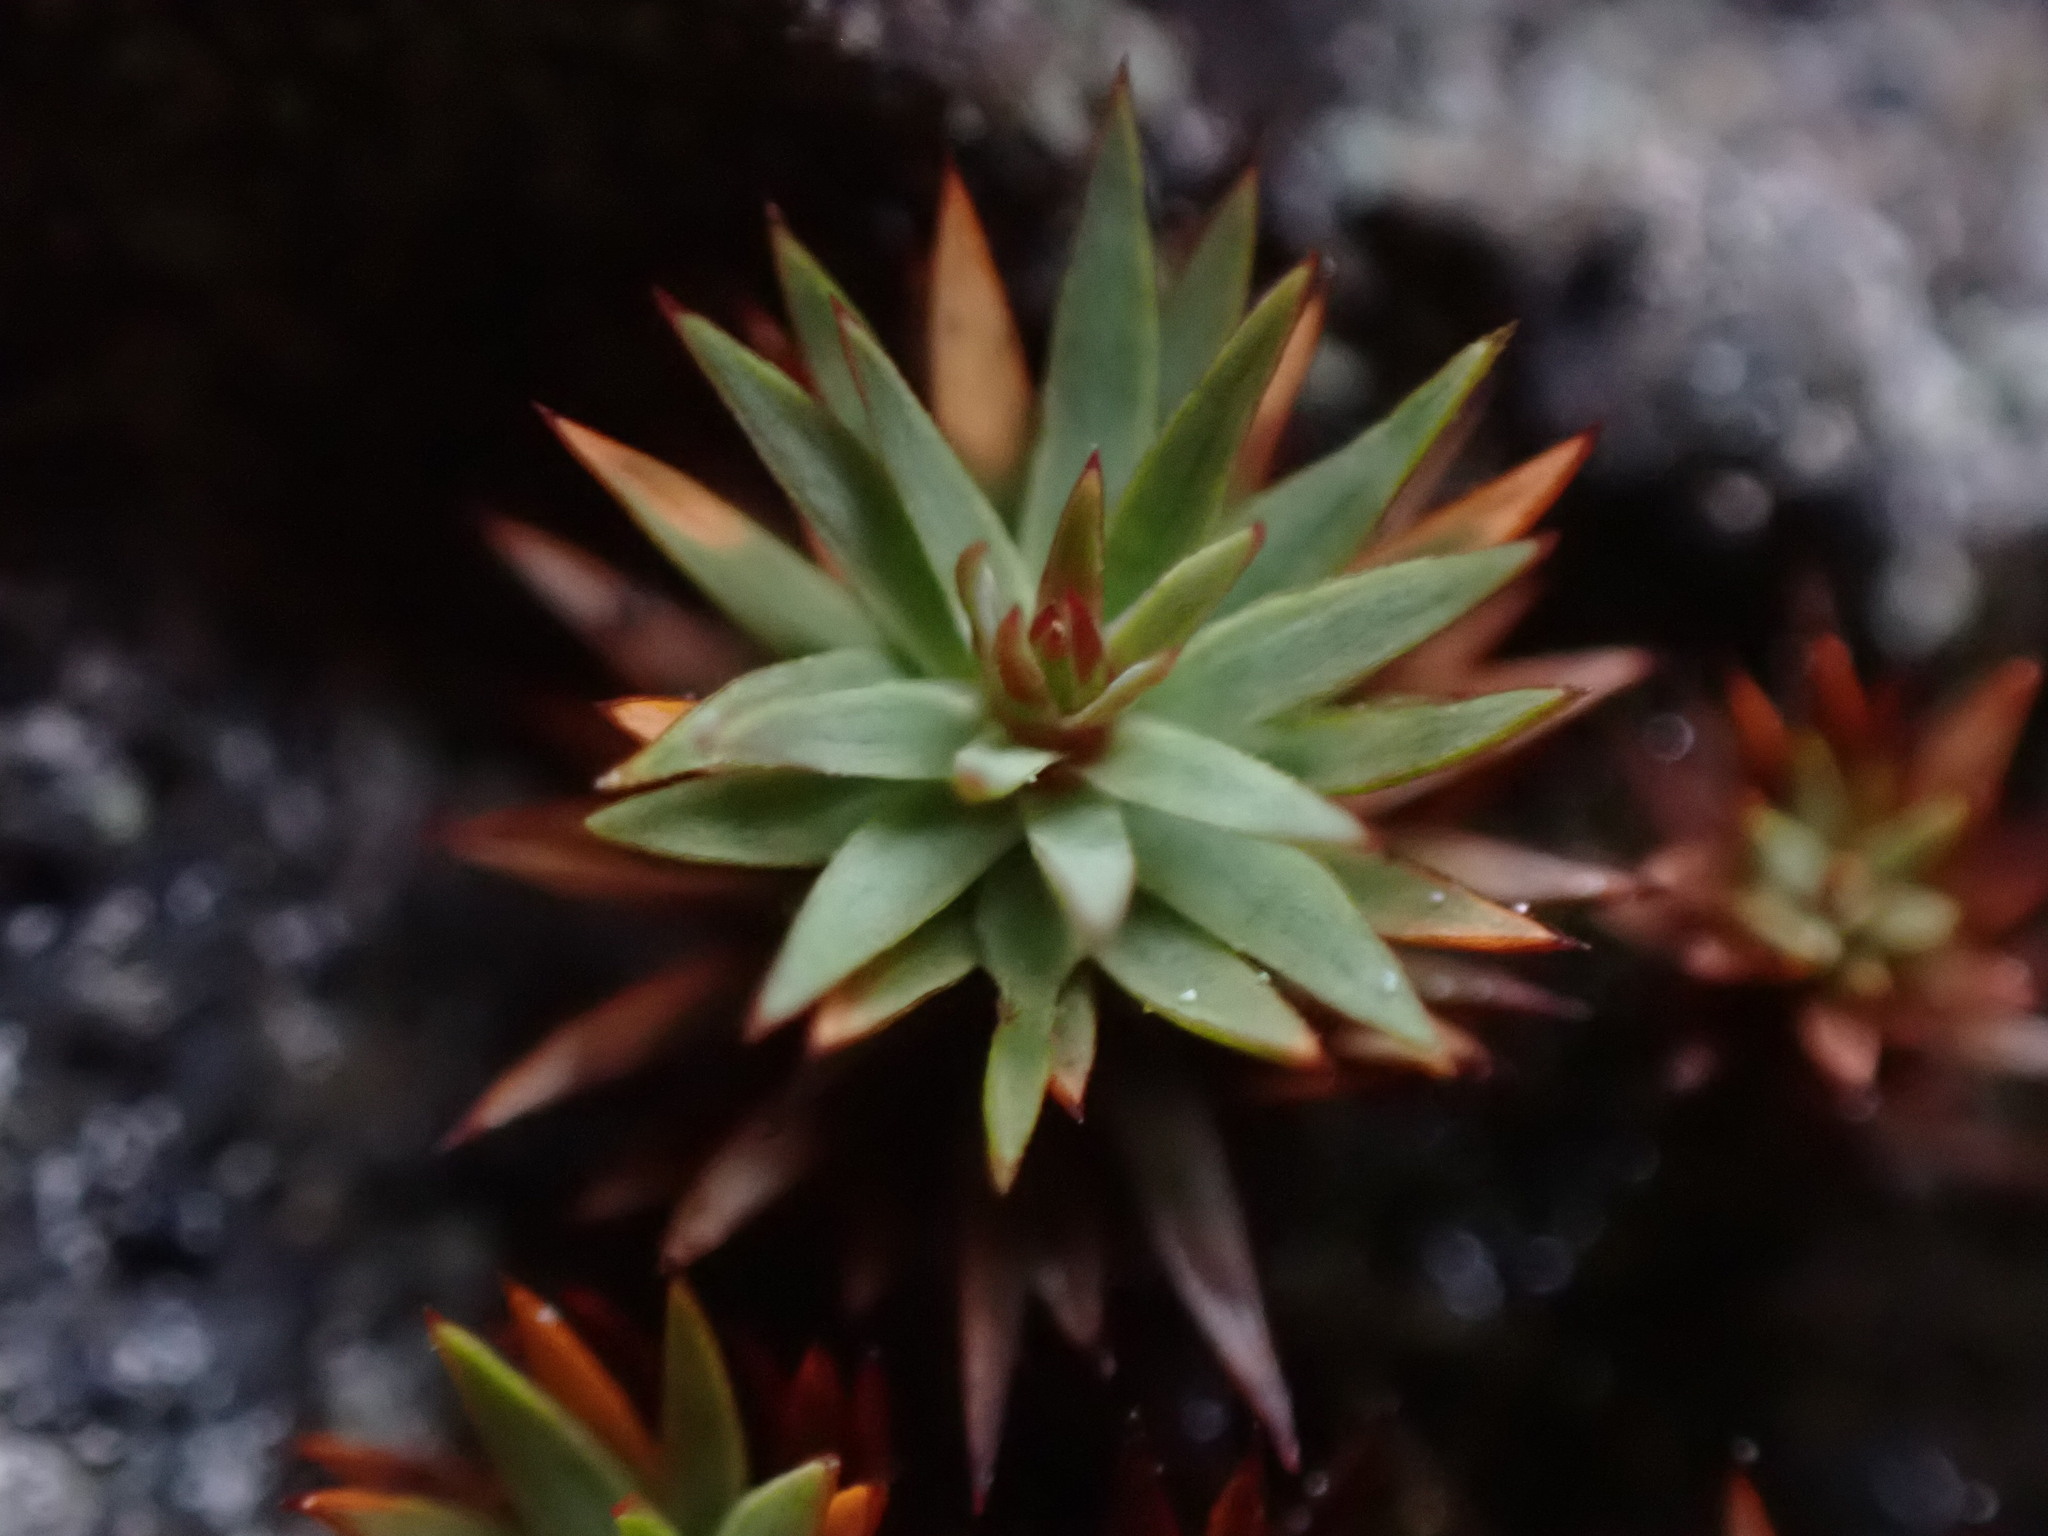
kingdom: Plantae
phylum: Bryophyta
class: Polytrichopsida
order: Polytrichales
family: Polytrichaceae
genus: Pogonatum
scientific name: Pogonatum urnigerum
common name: Urn hair moss
